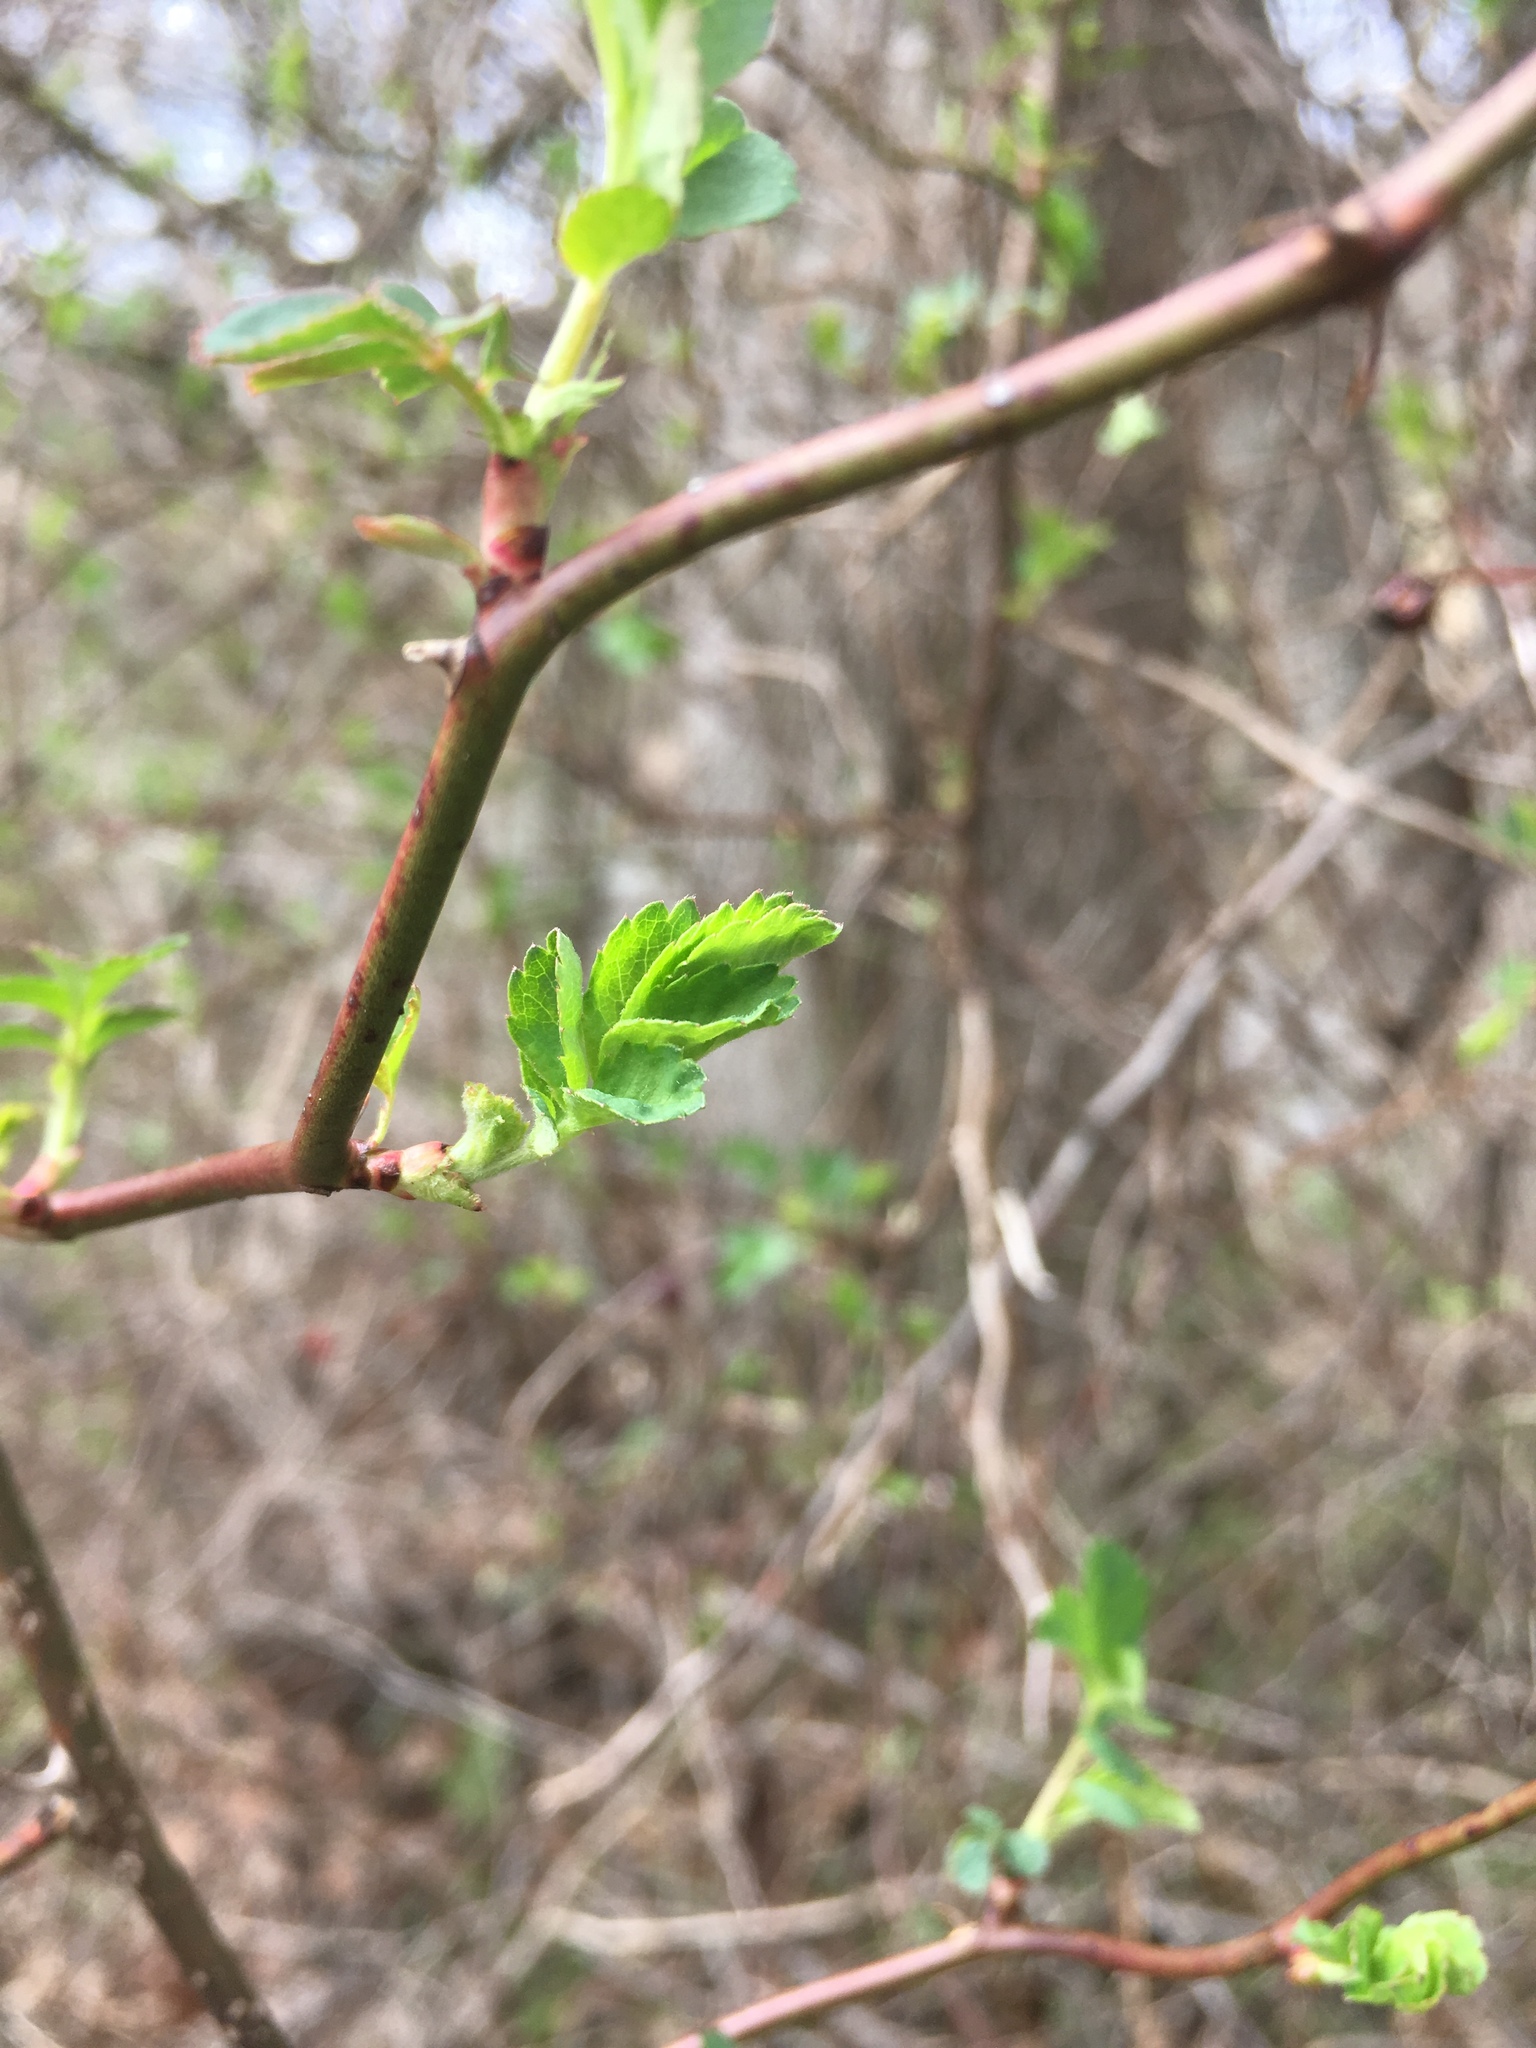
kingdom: Plantae
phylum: Tracheophyta
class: Magnoliopsida
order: Rosales
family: Rosaceae
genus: Rosa
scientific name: Rosa multiflora
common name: Multiflora rose
